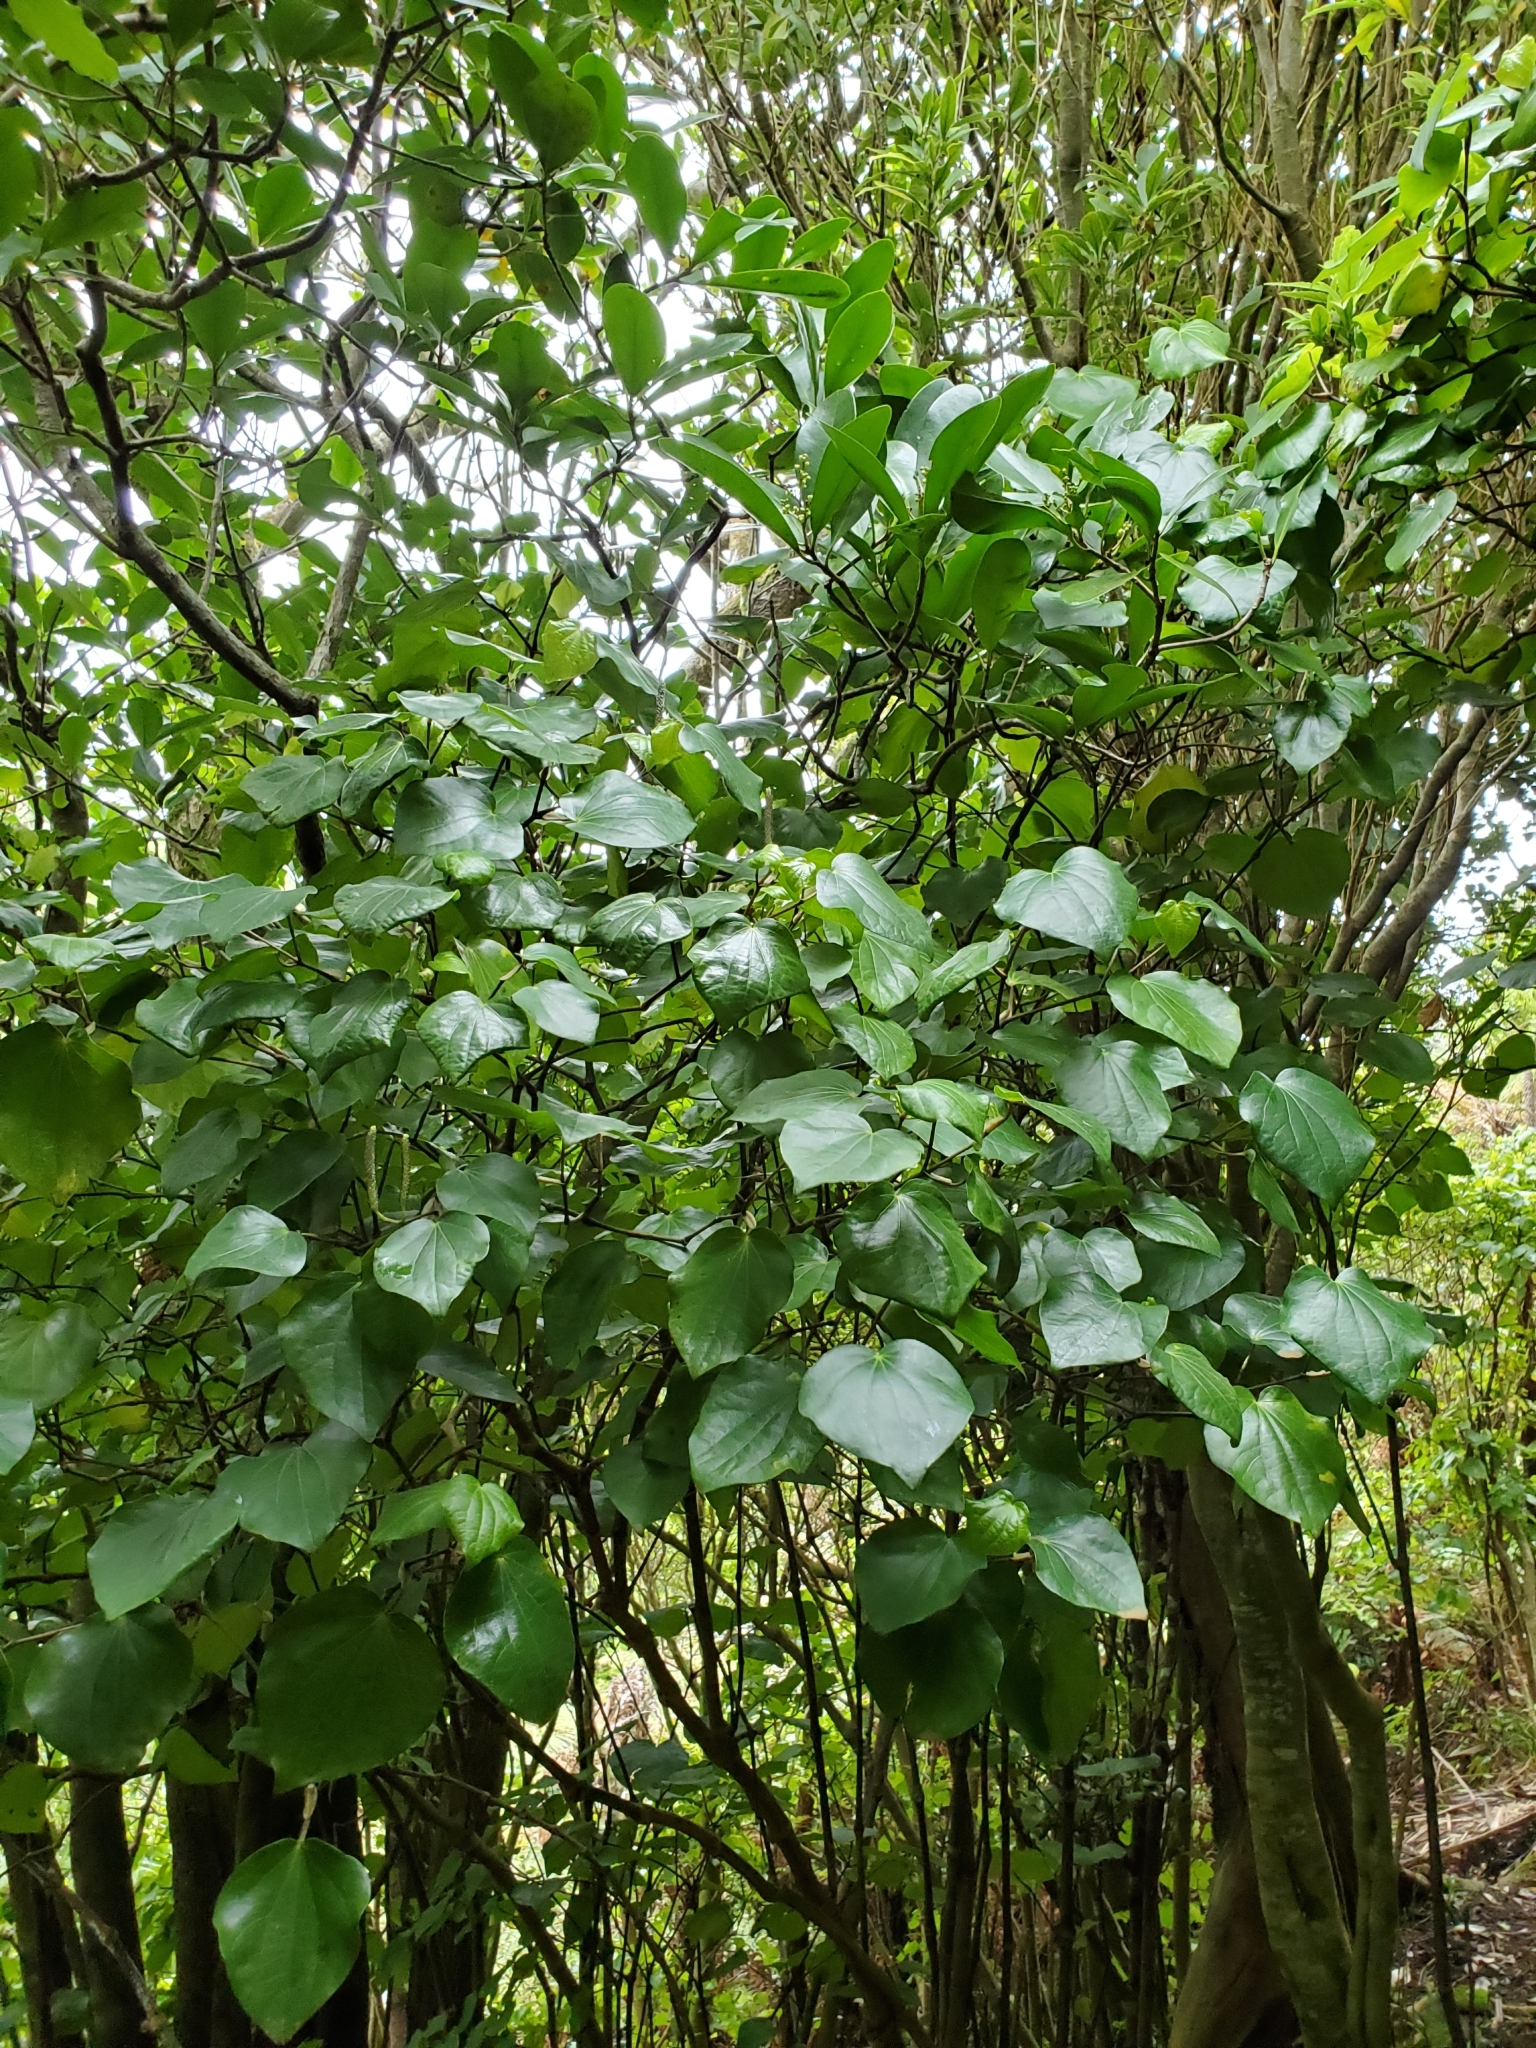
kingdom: Plantae
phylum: Tracheophyta
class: Magnoliopsida
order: Piperales
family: Piperaceae
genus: Macropiper
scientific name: Macropiper excelsum
